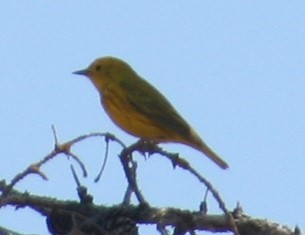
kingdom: Animalia
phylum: Chordata
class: Aves
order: Passeriformes
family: Parulidae
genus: Setophaga
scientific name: Setophaga petechia
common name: Yellow warbler
